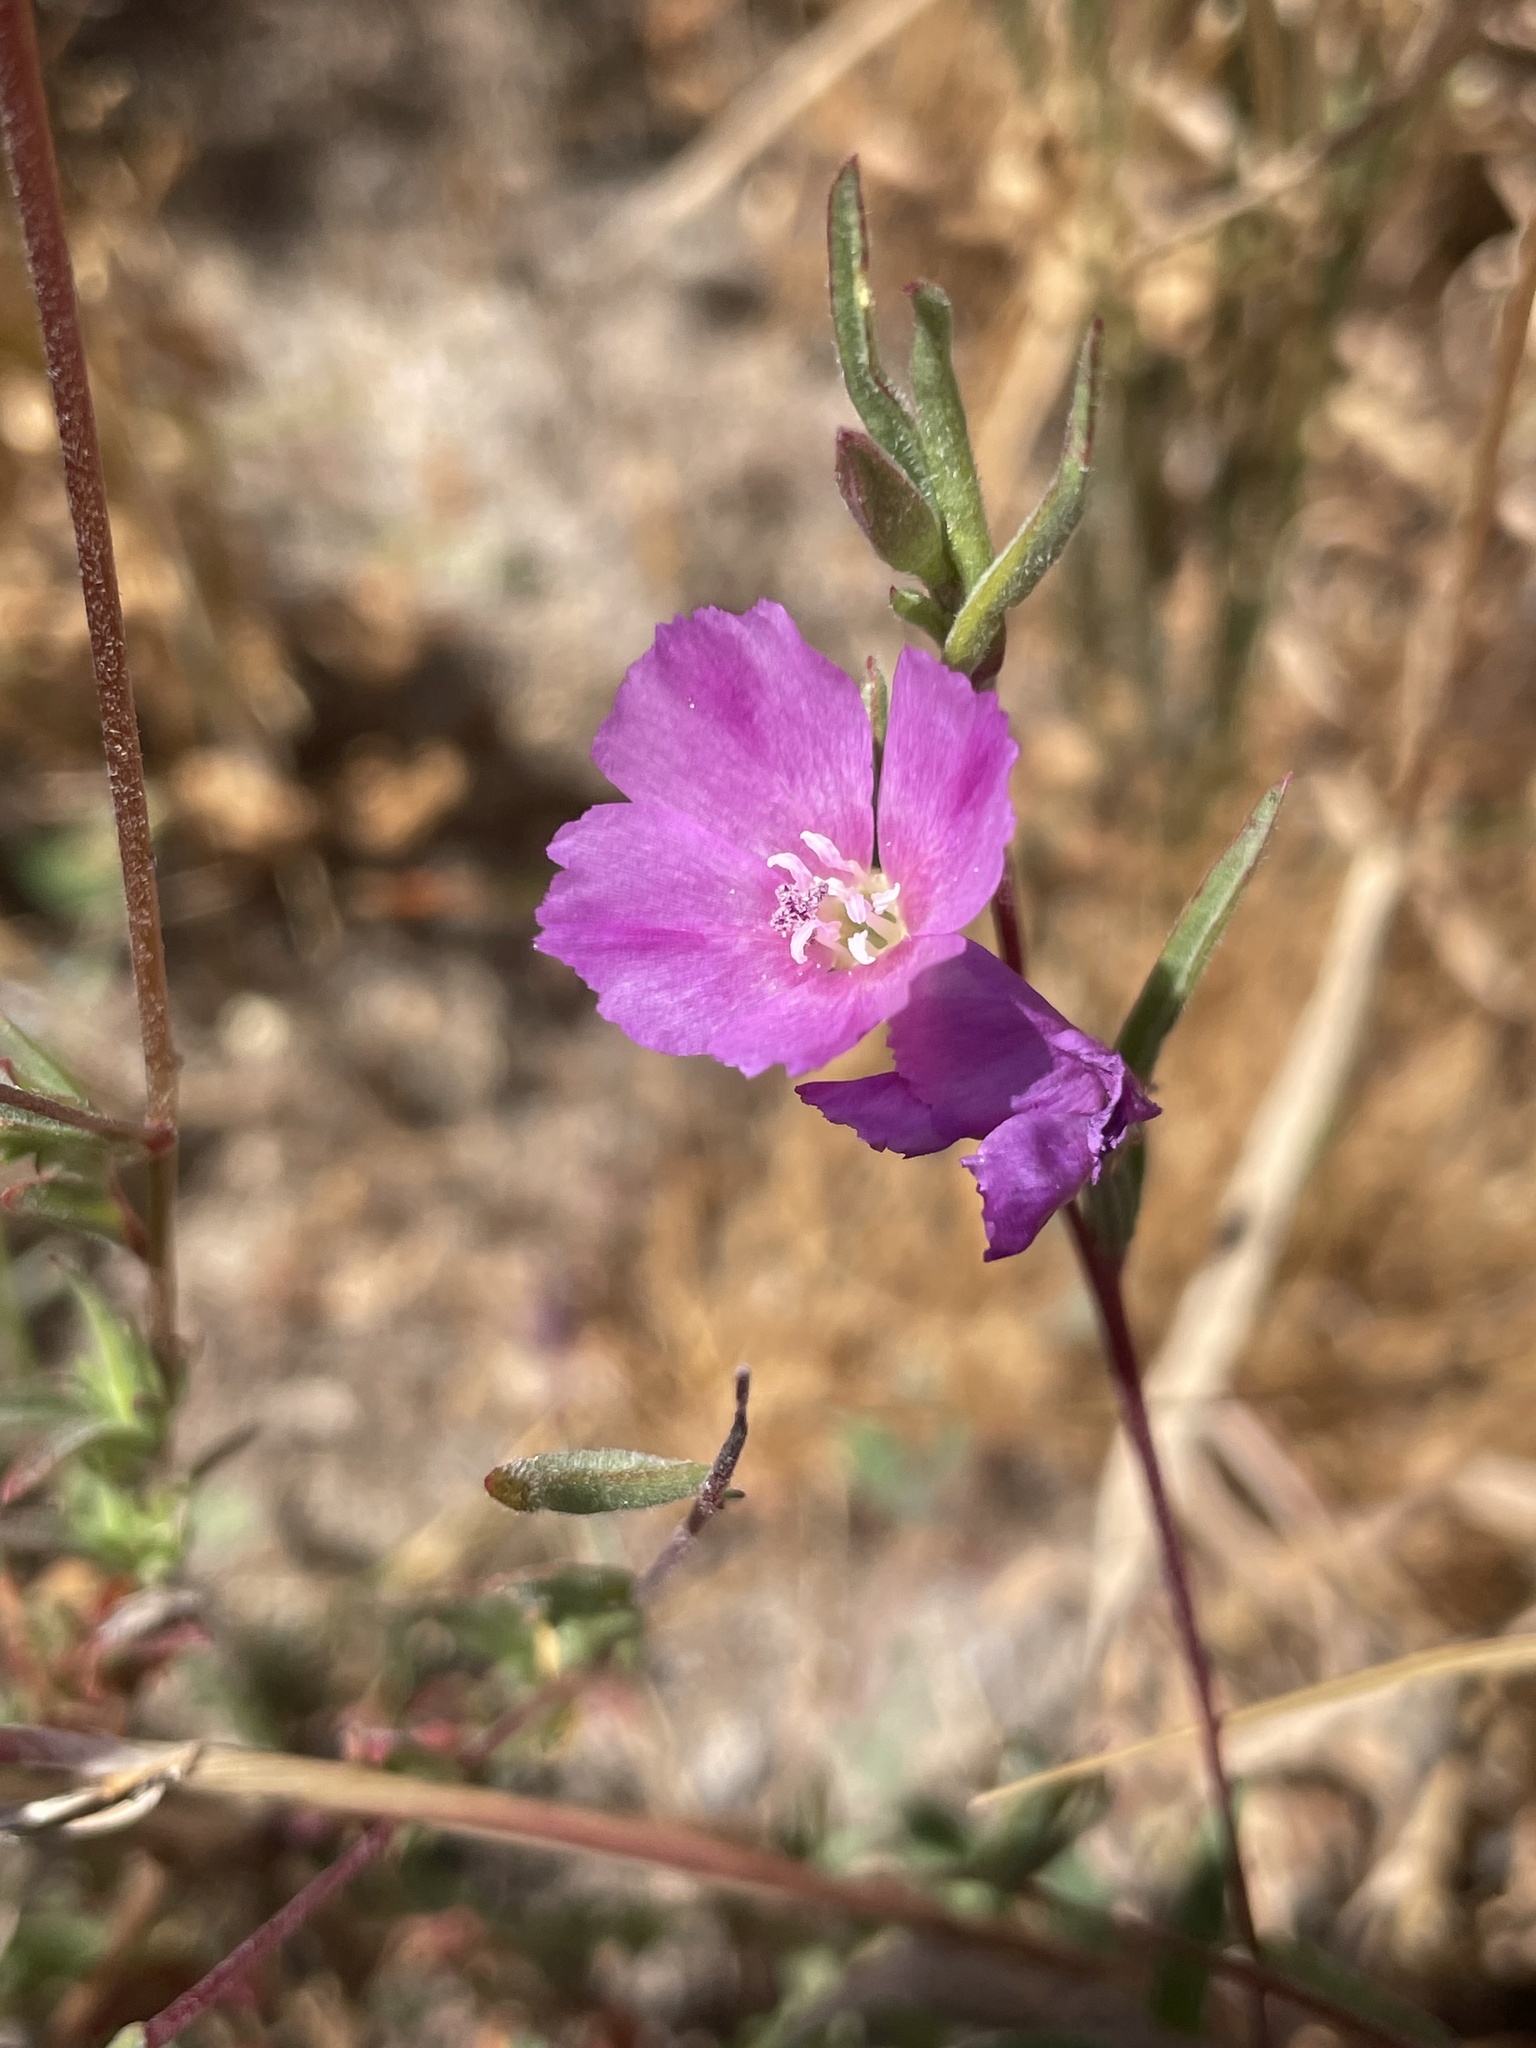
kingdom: Plantae
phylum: Tracheophyta
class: Magnoliopsida
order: Myrtales
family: Onagraceae
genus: Clarkia
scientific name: Clarkia purpurea
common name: Purple clarkia
